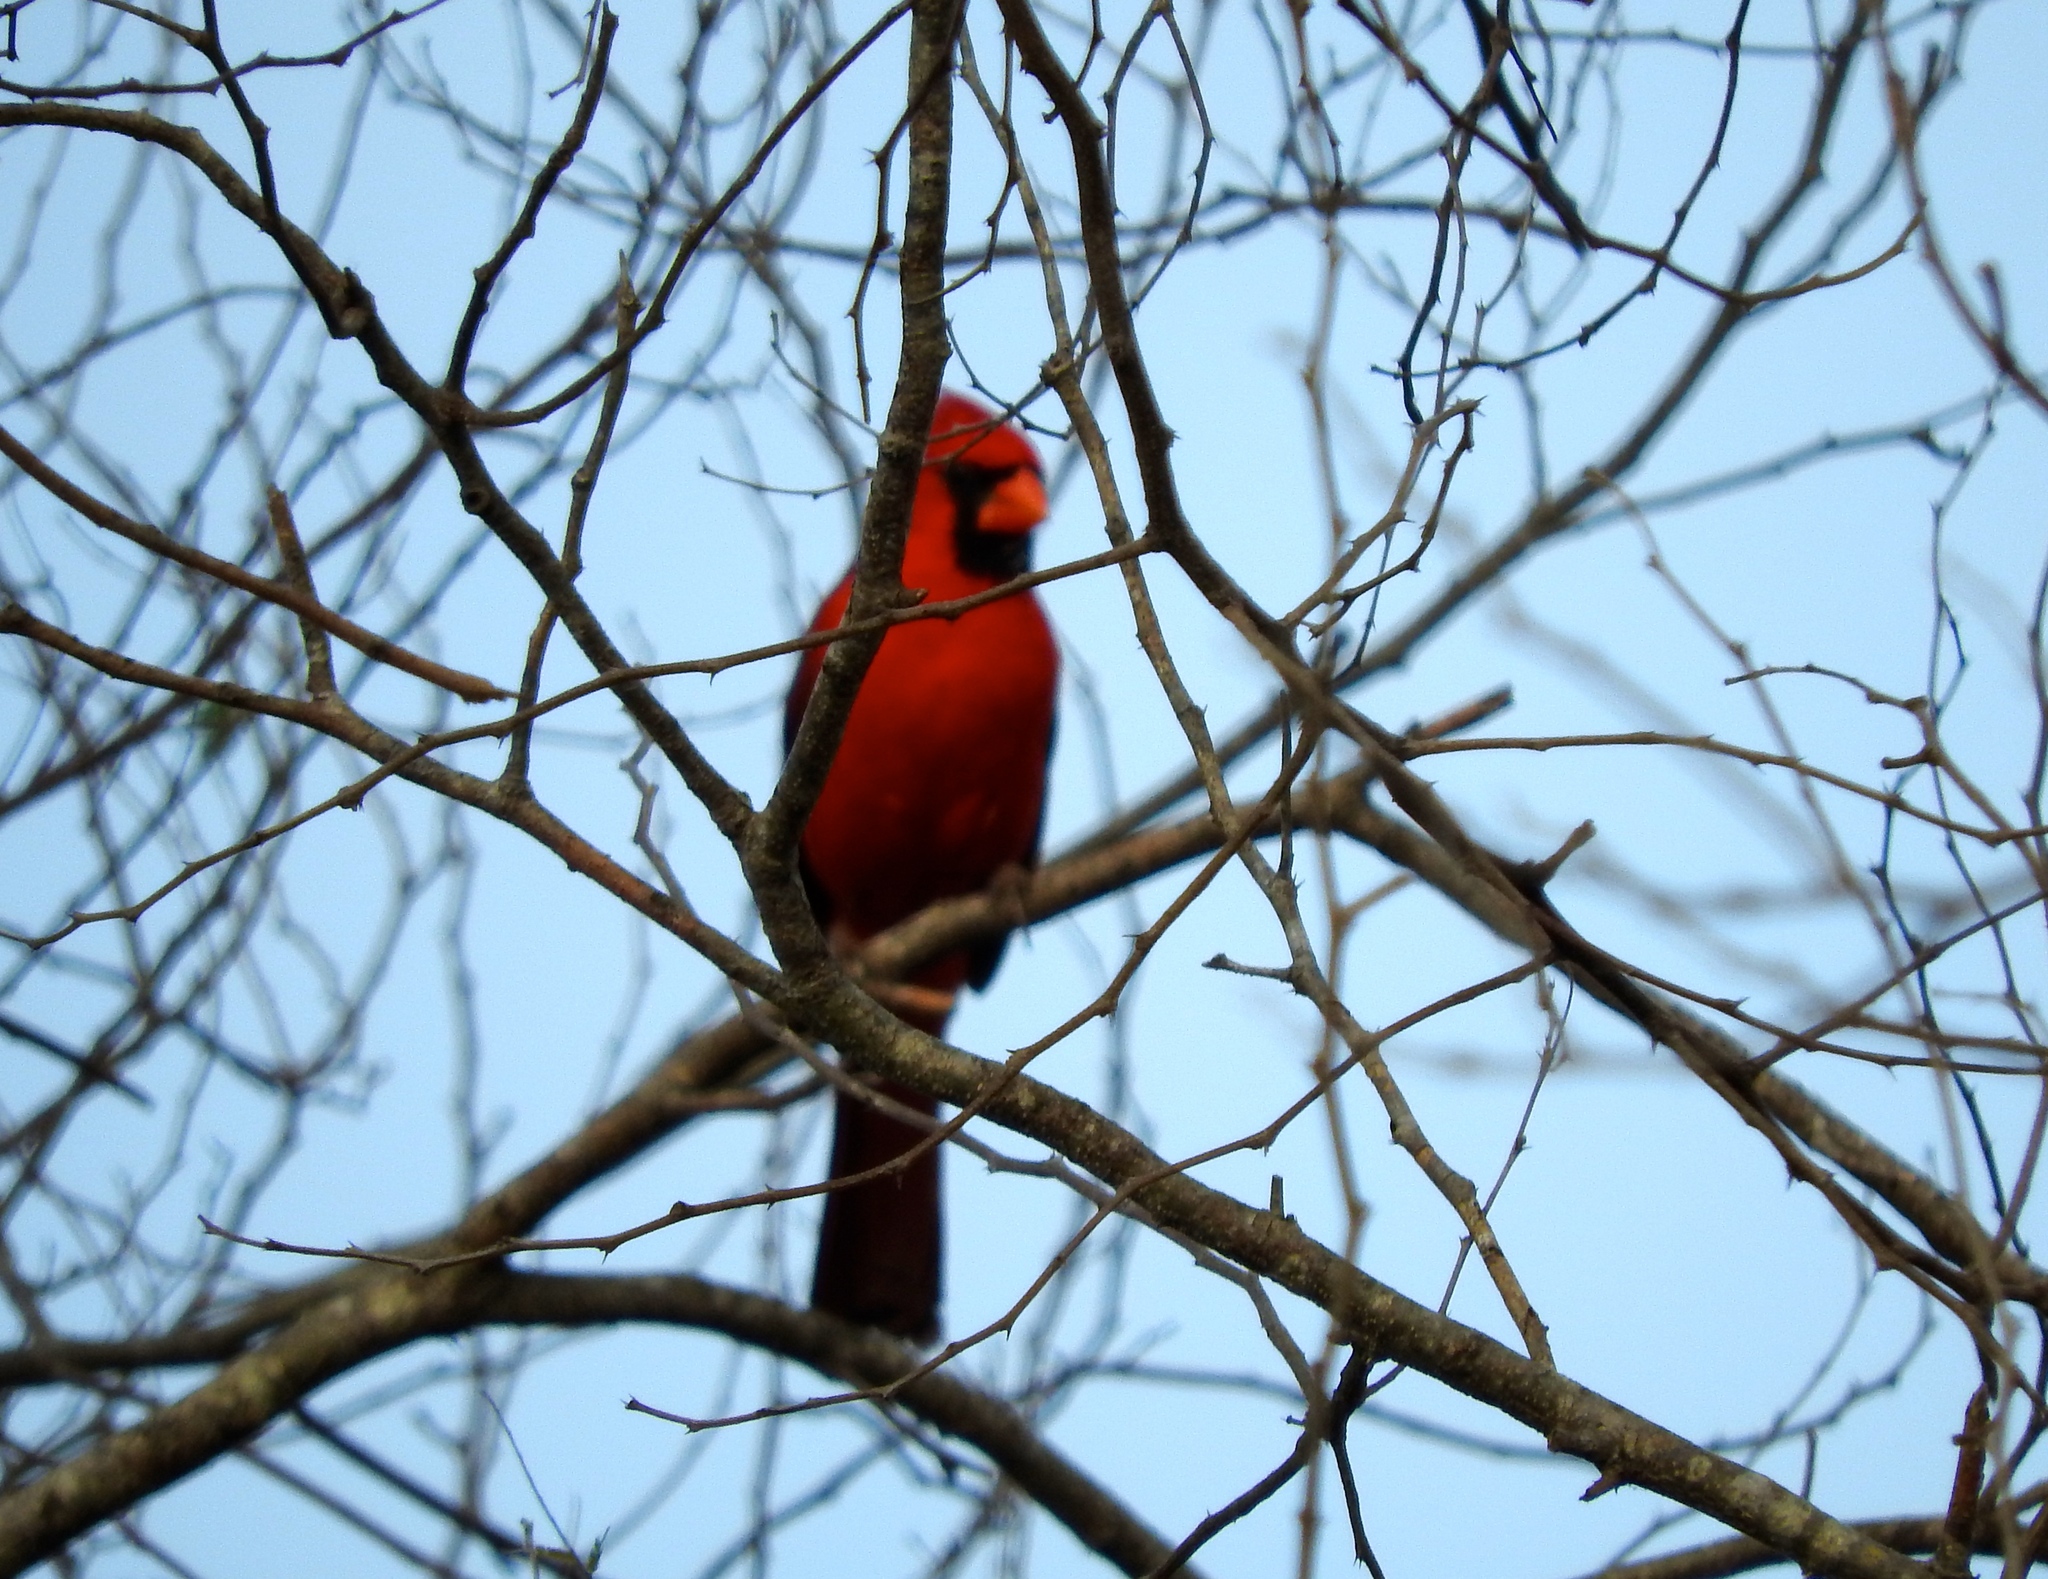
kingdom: Animalia
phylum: Chordata
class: Aves
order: Passeriformes
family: Cardinalidae
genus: Cardinalis
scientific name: Cardinalis cardinalis
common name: Northern cardinal
